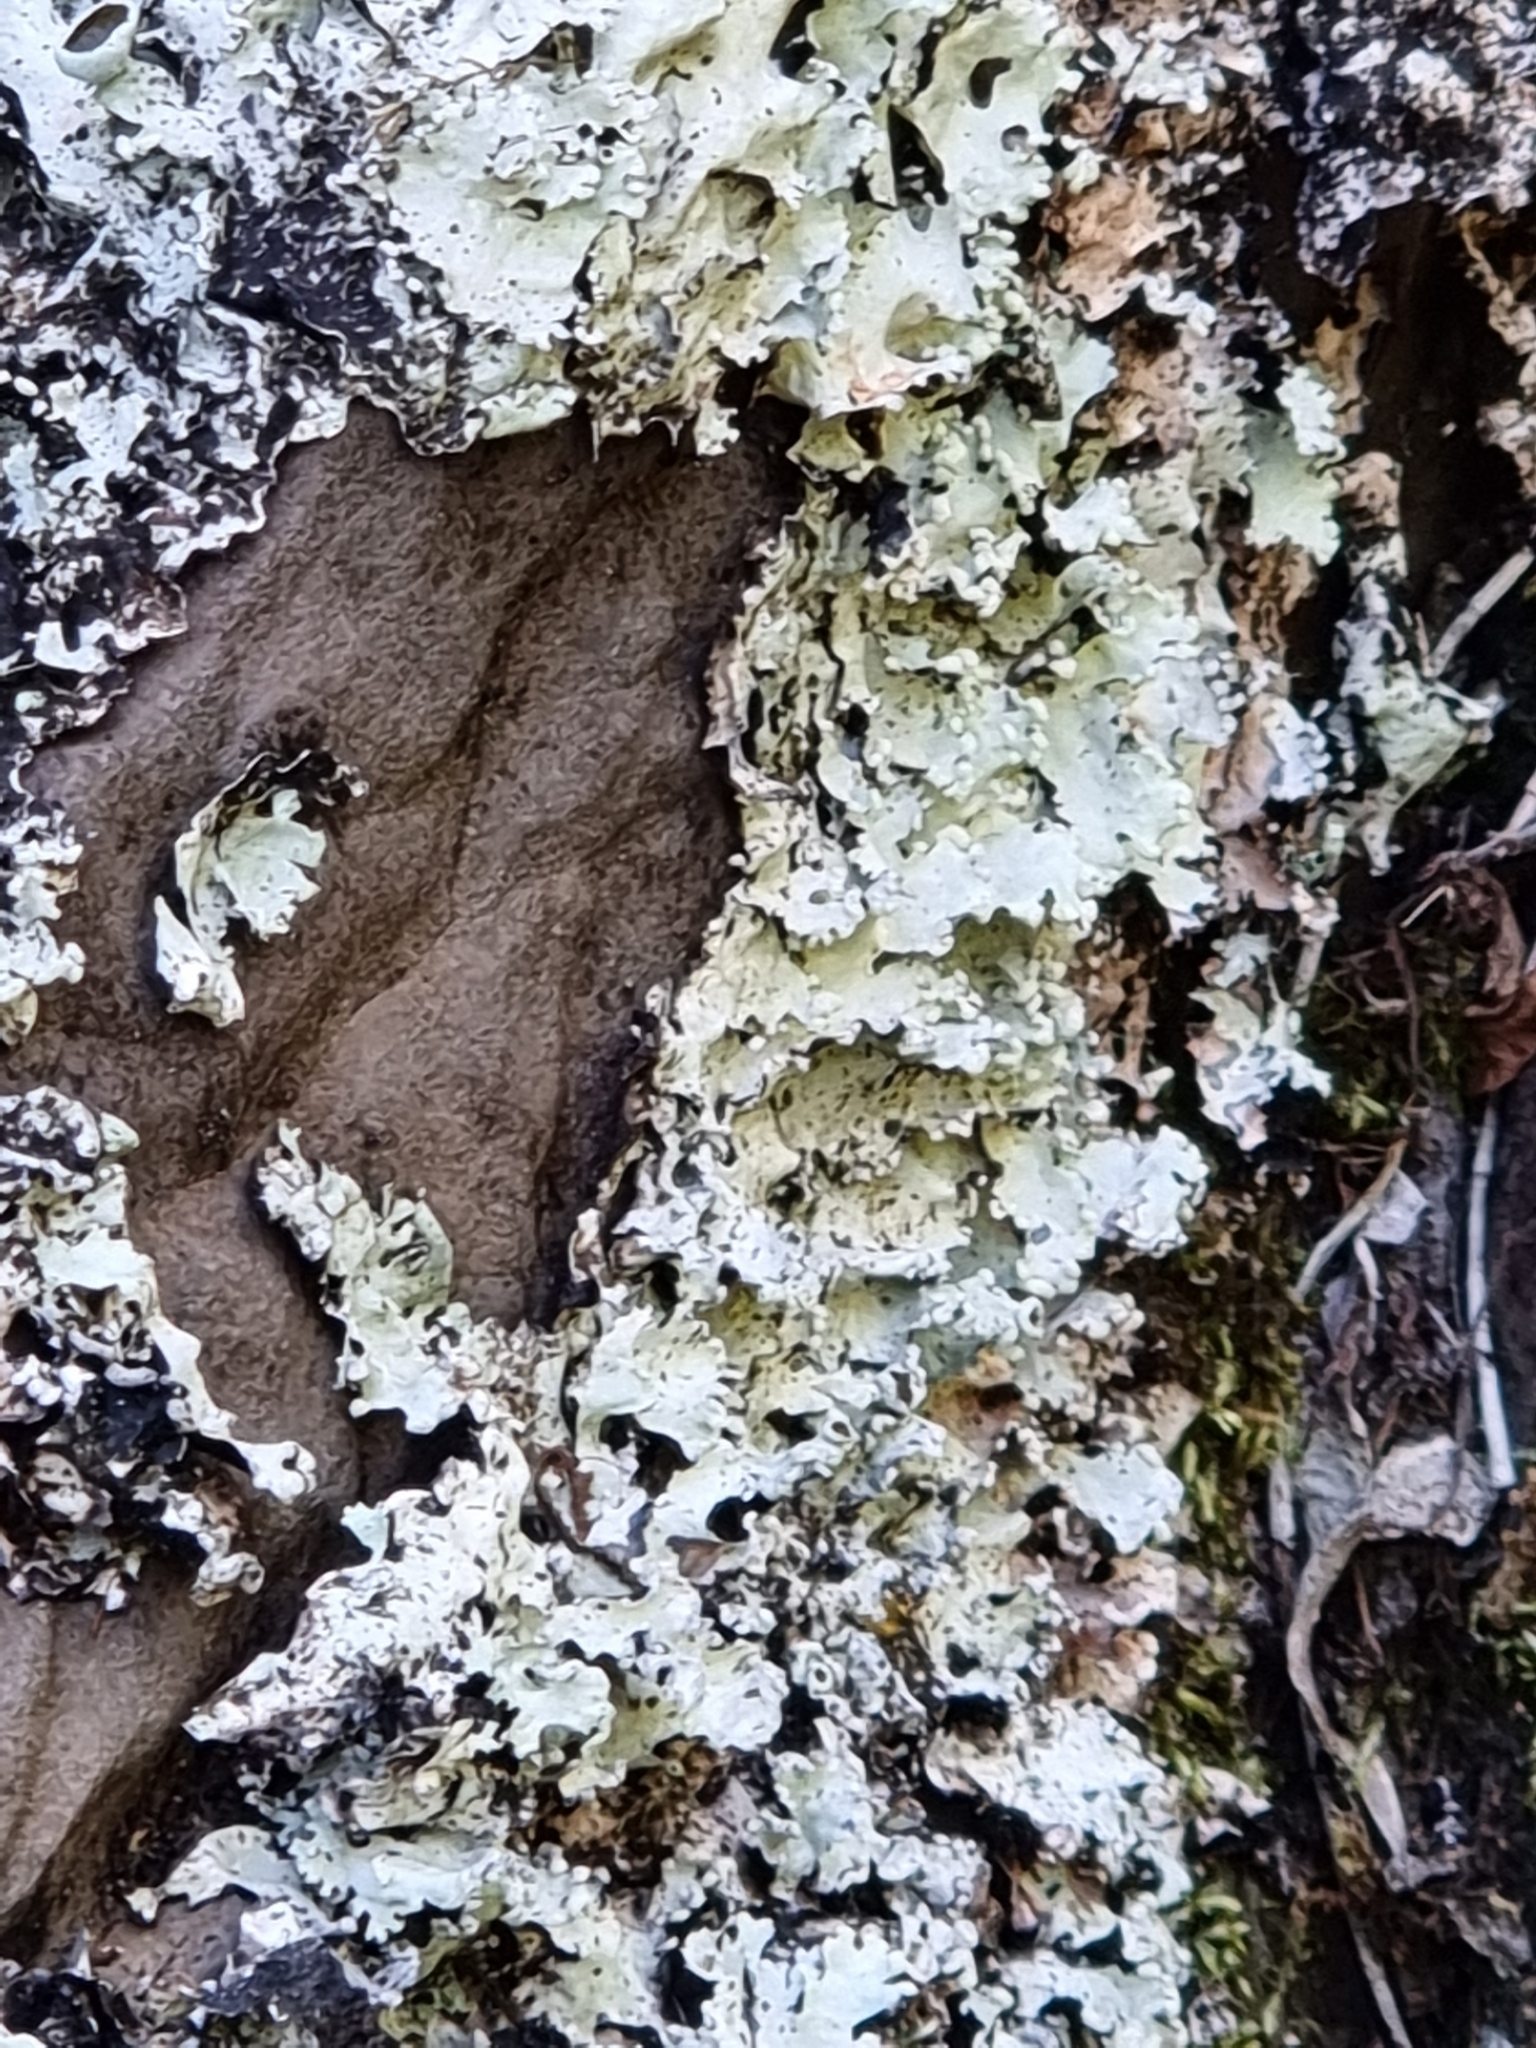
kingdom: Fungi
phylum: Ascomycota
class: Lecanoromycetes
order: Lecanorales
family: Parmeliaceae
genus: Parmotrema
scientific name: Parmotrema crinitum
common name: Salted ruffle lichen
